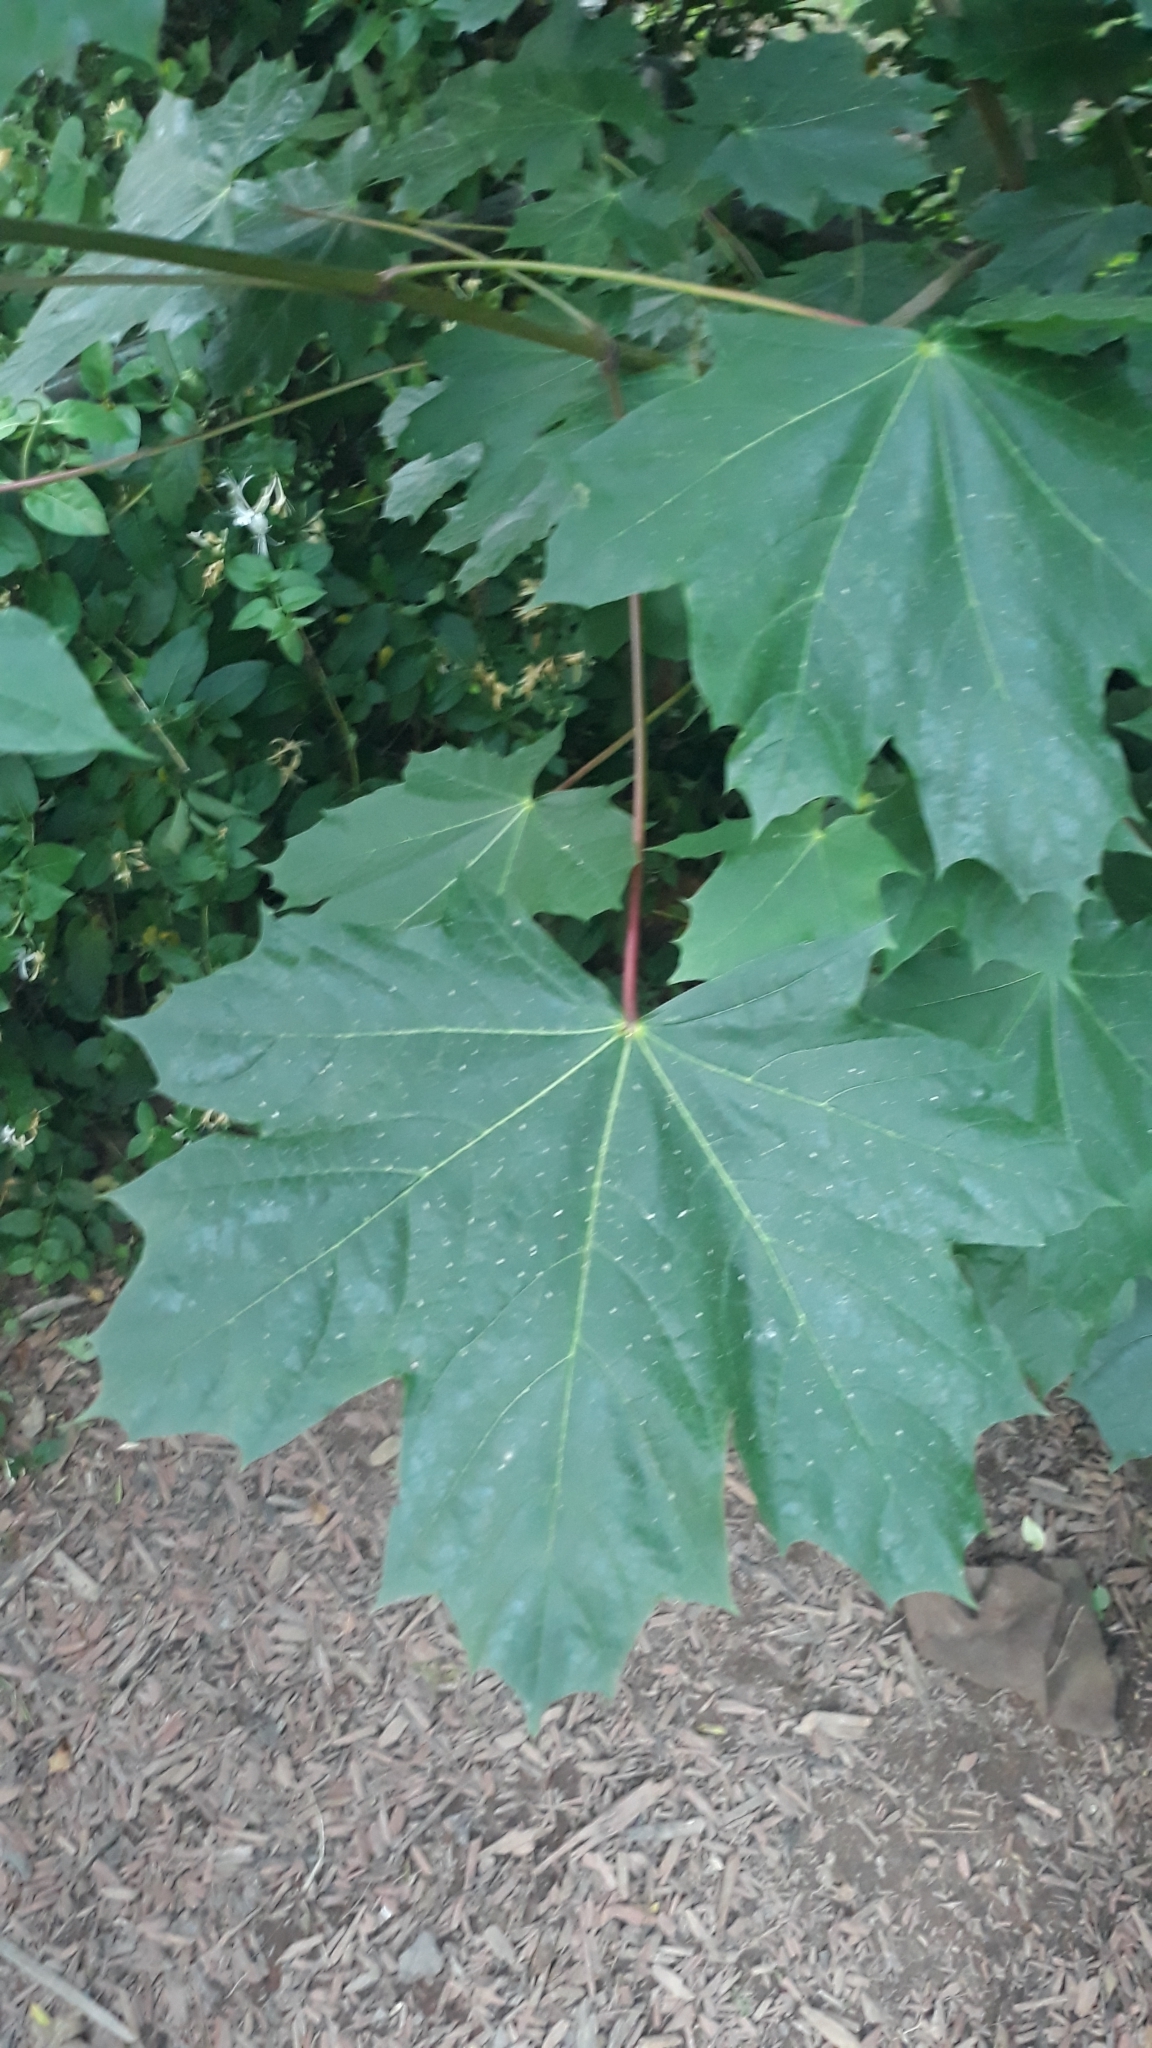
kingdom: Plantae
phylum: Tracheophyta
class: Magnoliopsida
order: Sapindales
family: Sapindaceae
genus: Acer
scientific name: Acer platanoides
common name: Norway maple
